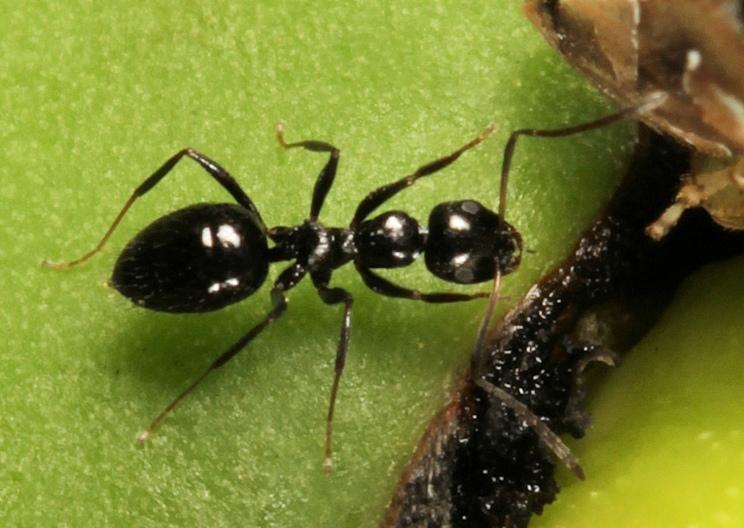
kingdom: Animalia
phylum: Arthropoda
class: Insecta
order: Hymenoptera
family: Formicidae
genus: Lepisiota
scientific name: Lepisiota incisa
